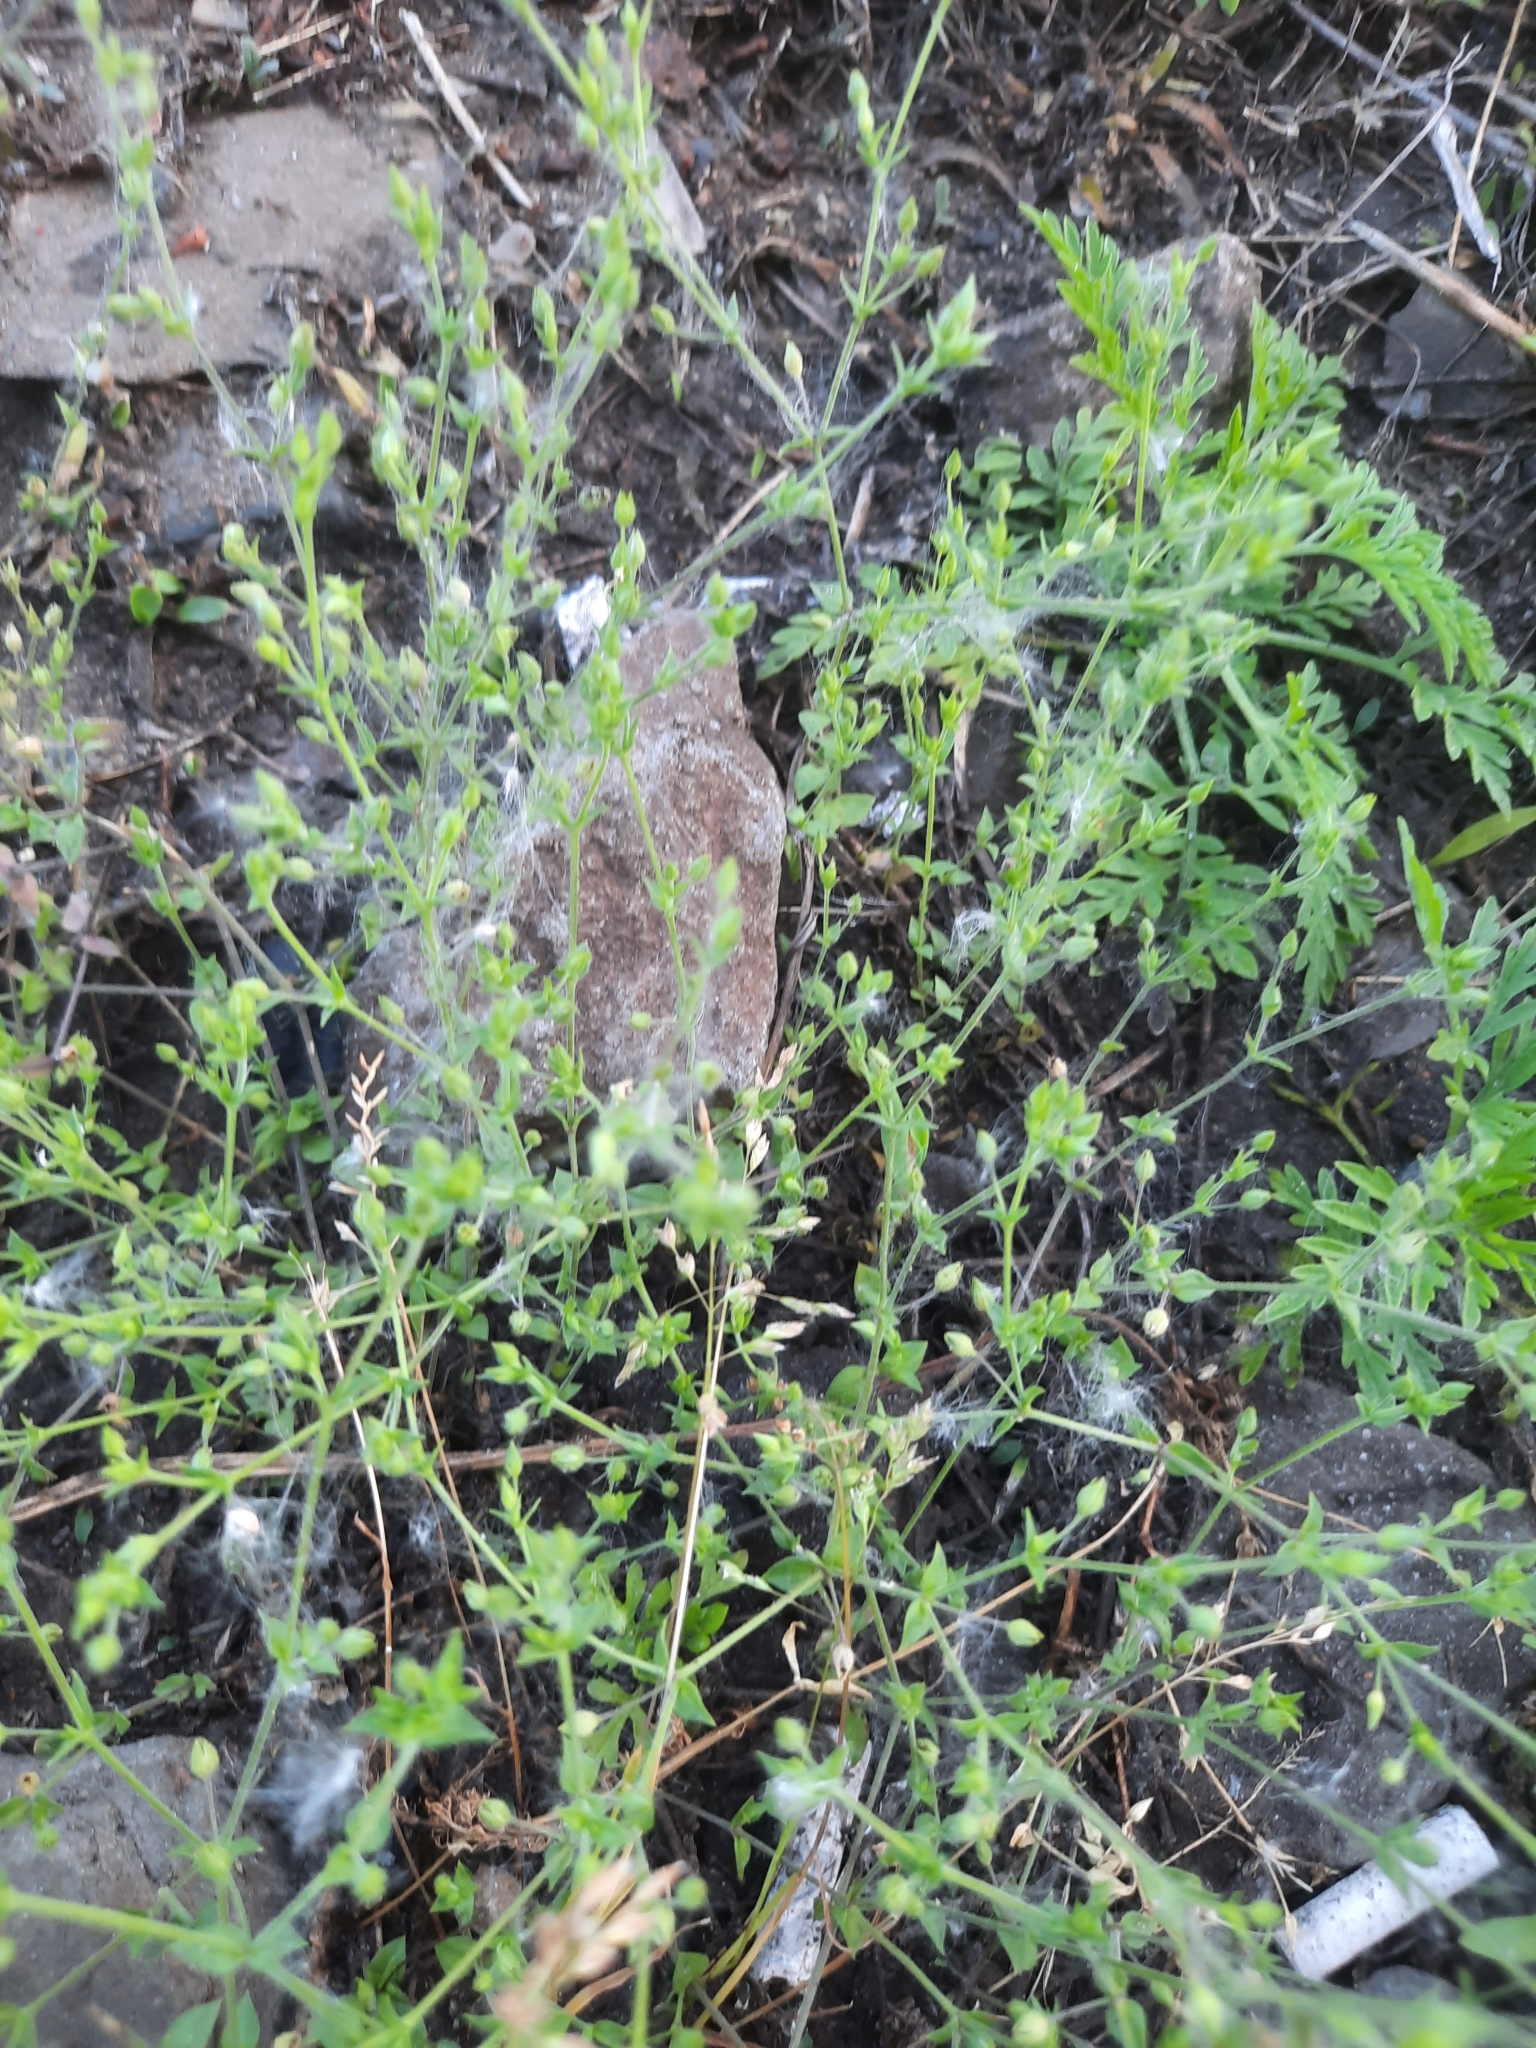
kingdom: Plantae
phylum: Tracheophyta
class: Magnoliopsida
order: Caryophyllales
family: Caryophyllaceae
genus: Arenaria
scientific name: Arenaria serpyllifolia
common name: Thyme-leaved sandwort
